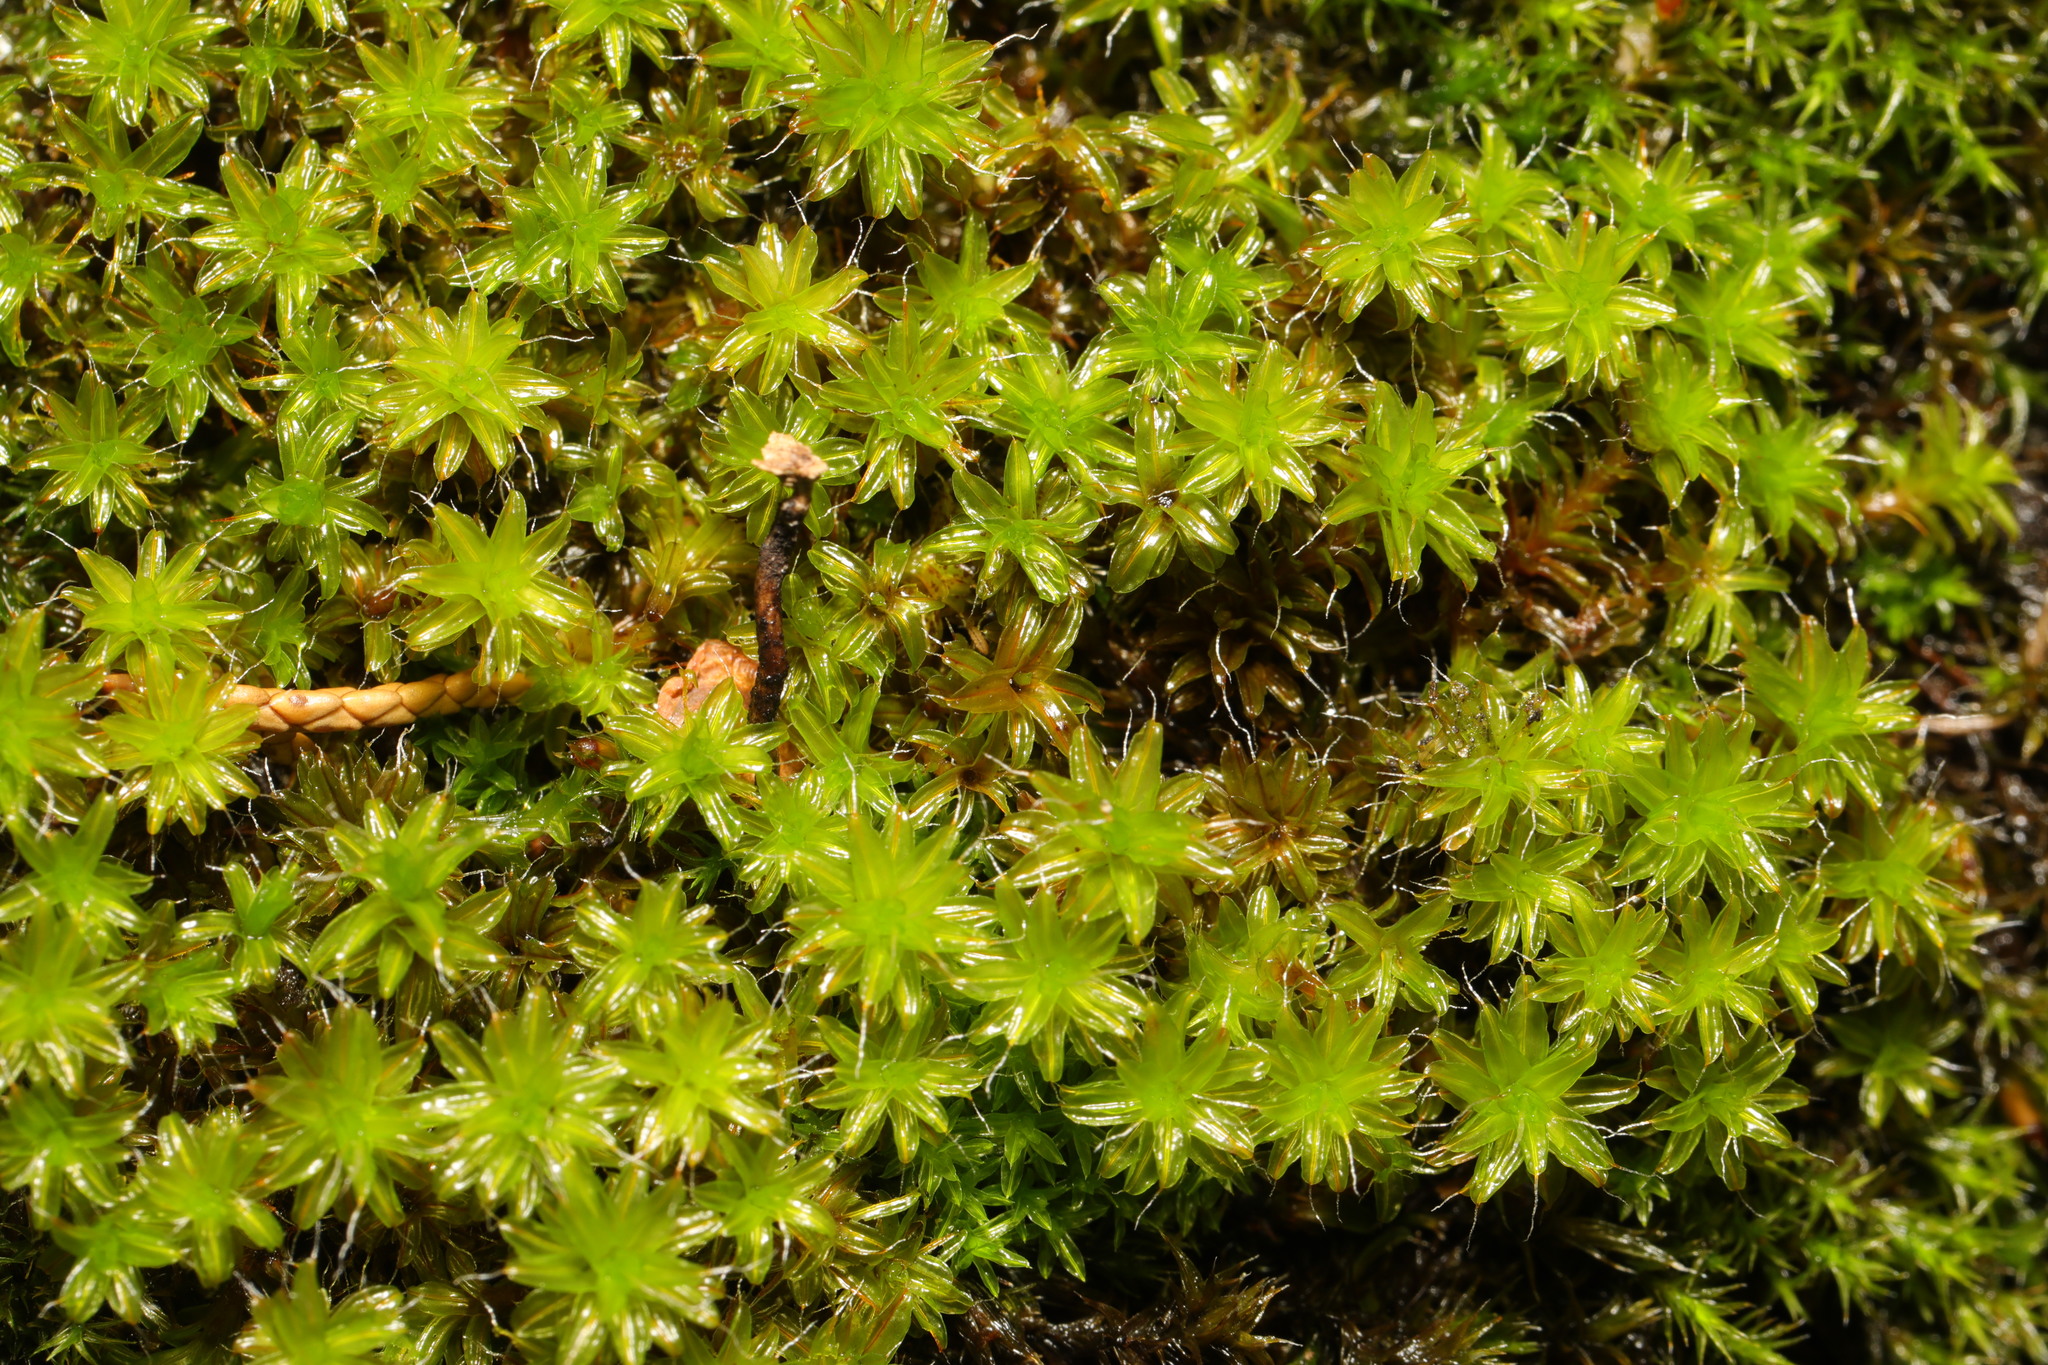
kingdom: Plantae
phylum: Bryophyta
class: Bryopsida
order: Pottiales
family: Pottiaceae
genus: Syntrichia
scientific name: Syntrichia ruralis
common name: Sidewalk screw moss
